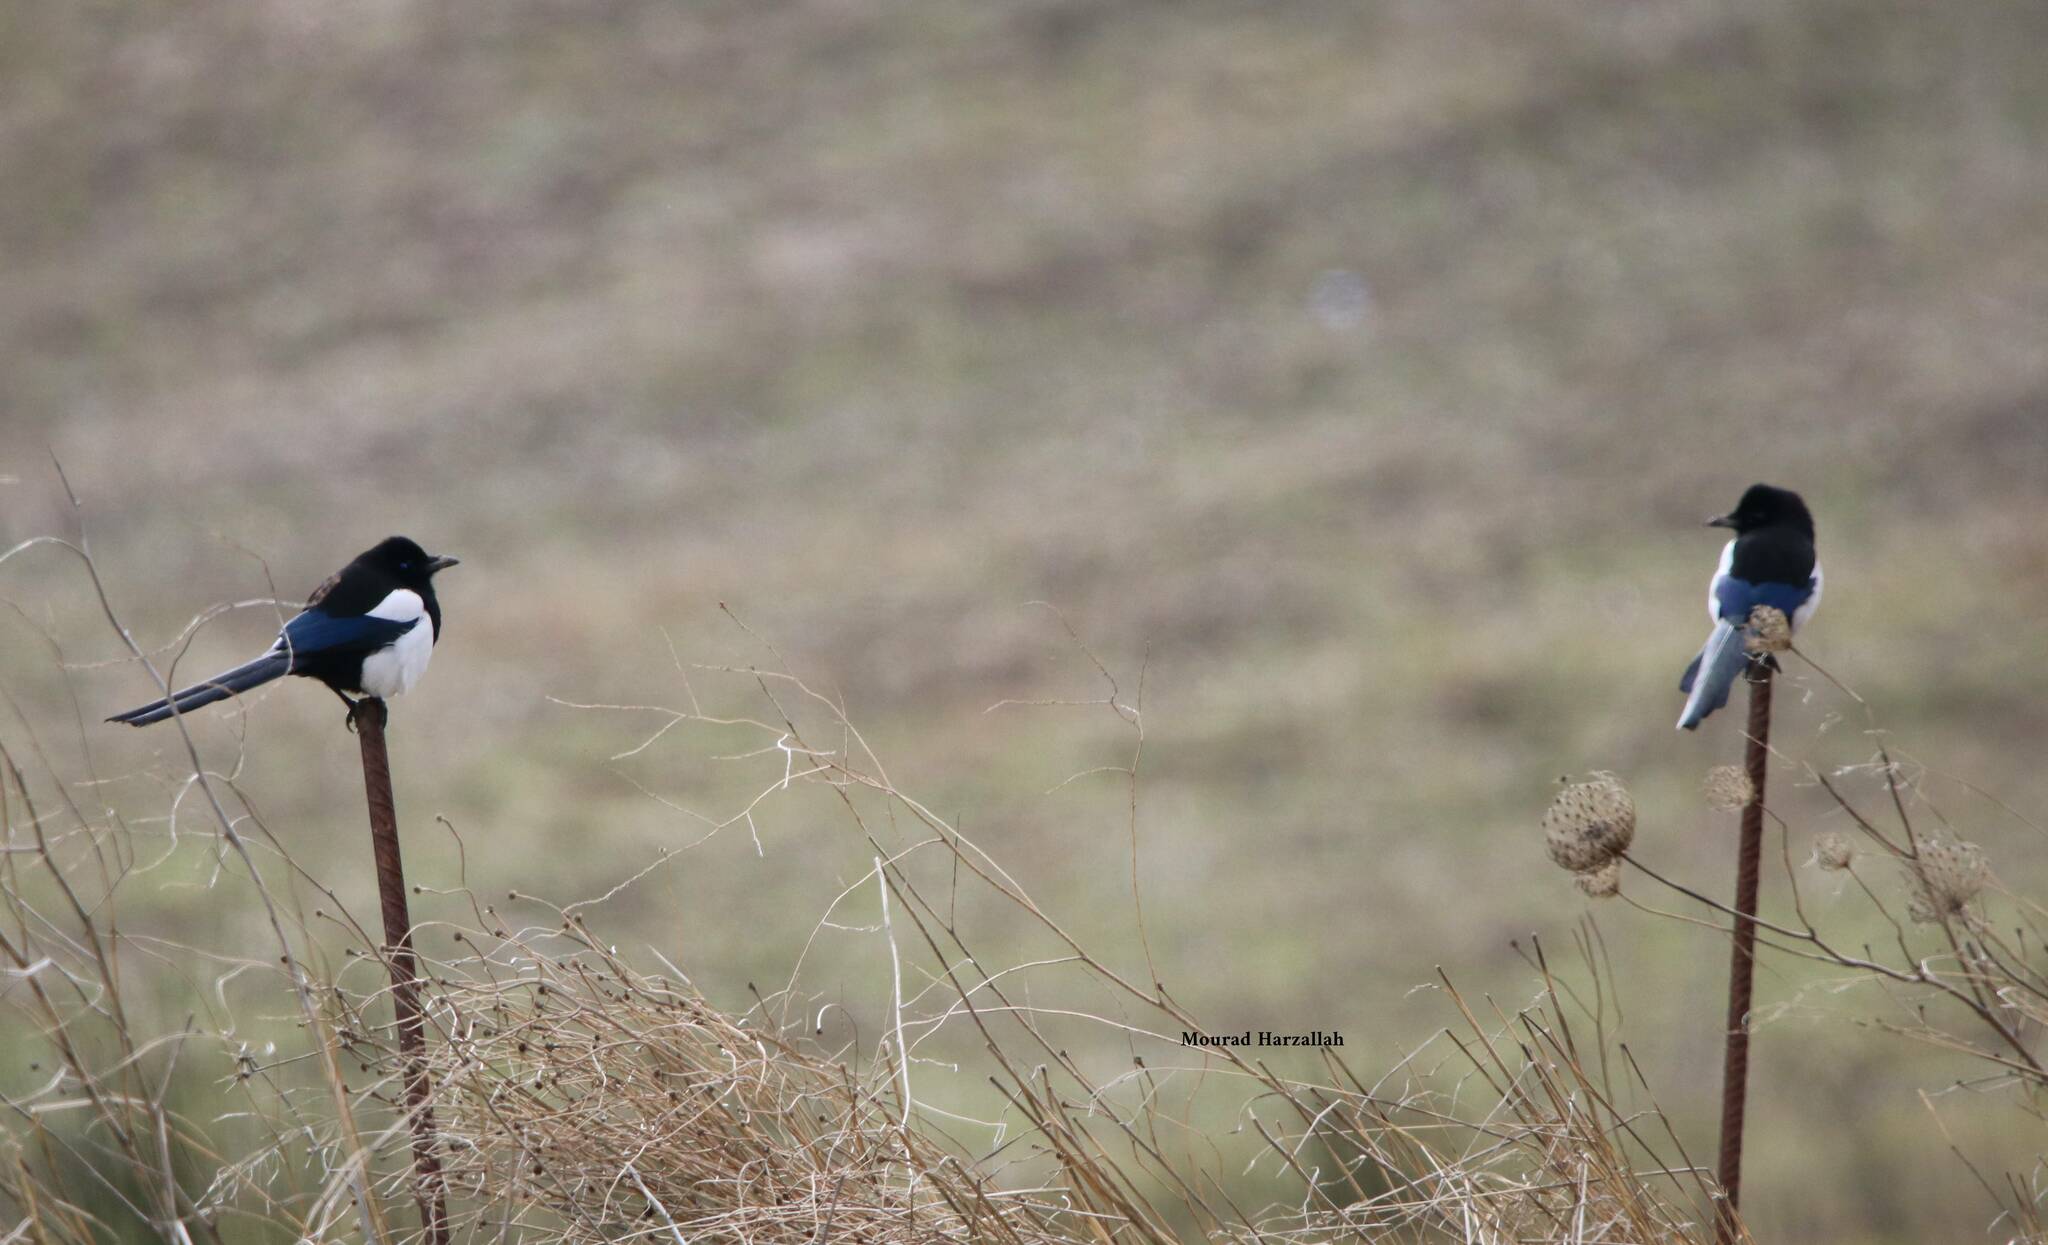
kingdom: Animalia
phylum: Chordata
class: Aves
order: Passeriformes
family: Corvidae
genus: Pica
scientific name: Pica mauritanica
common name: Maghreb magpie
